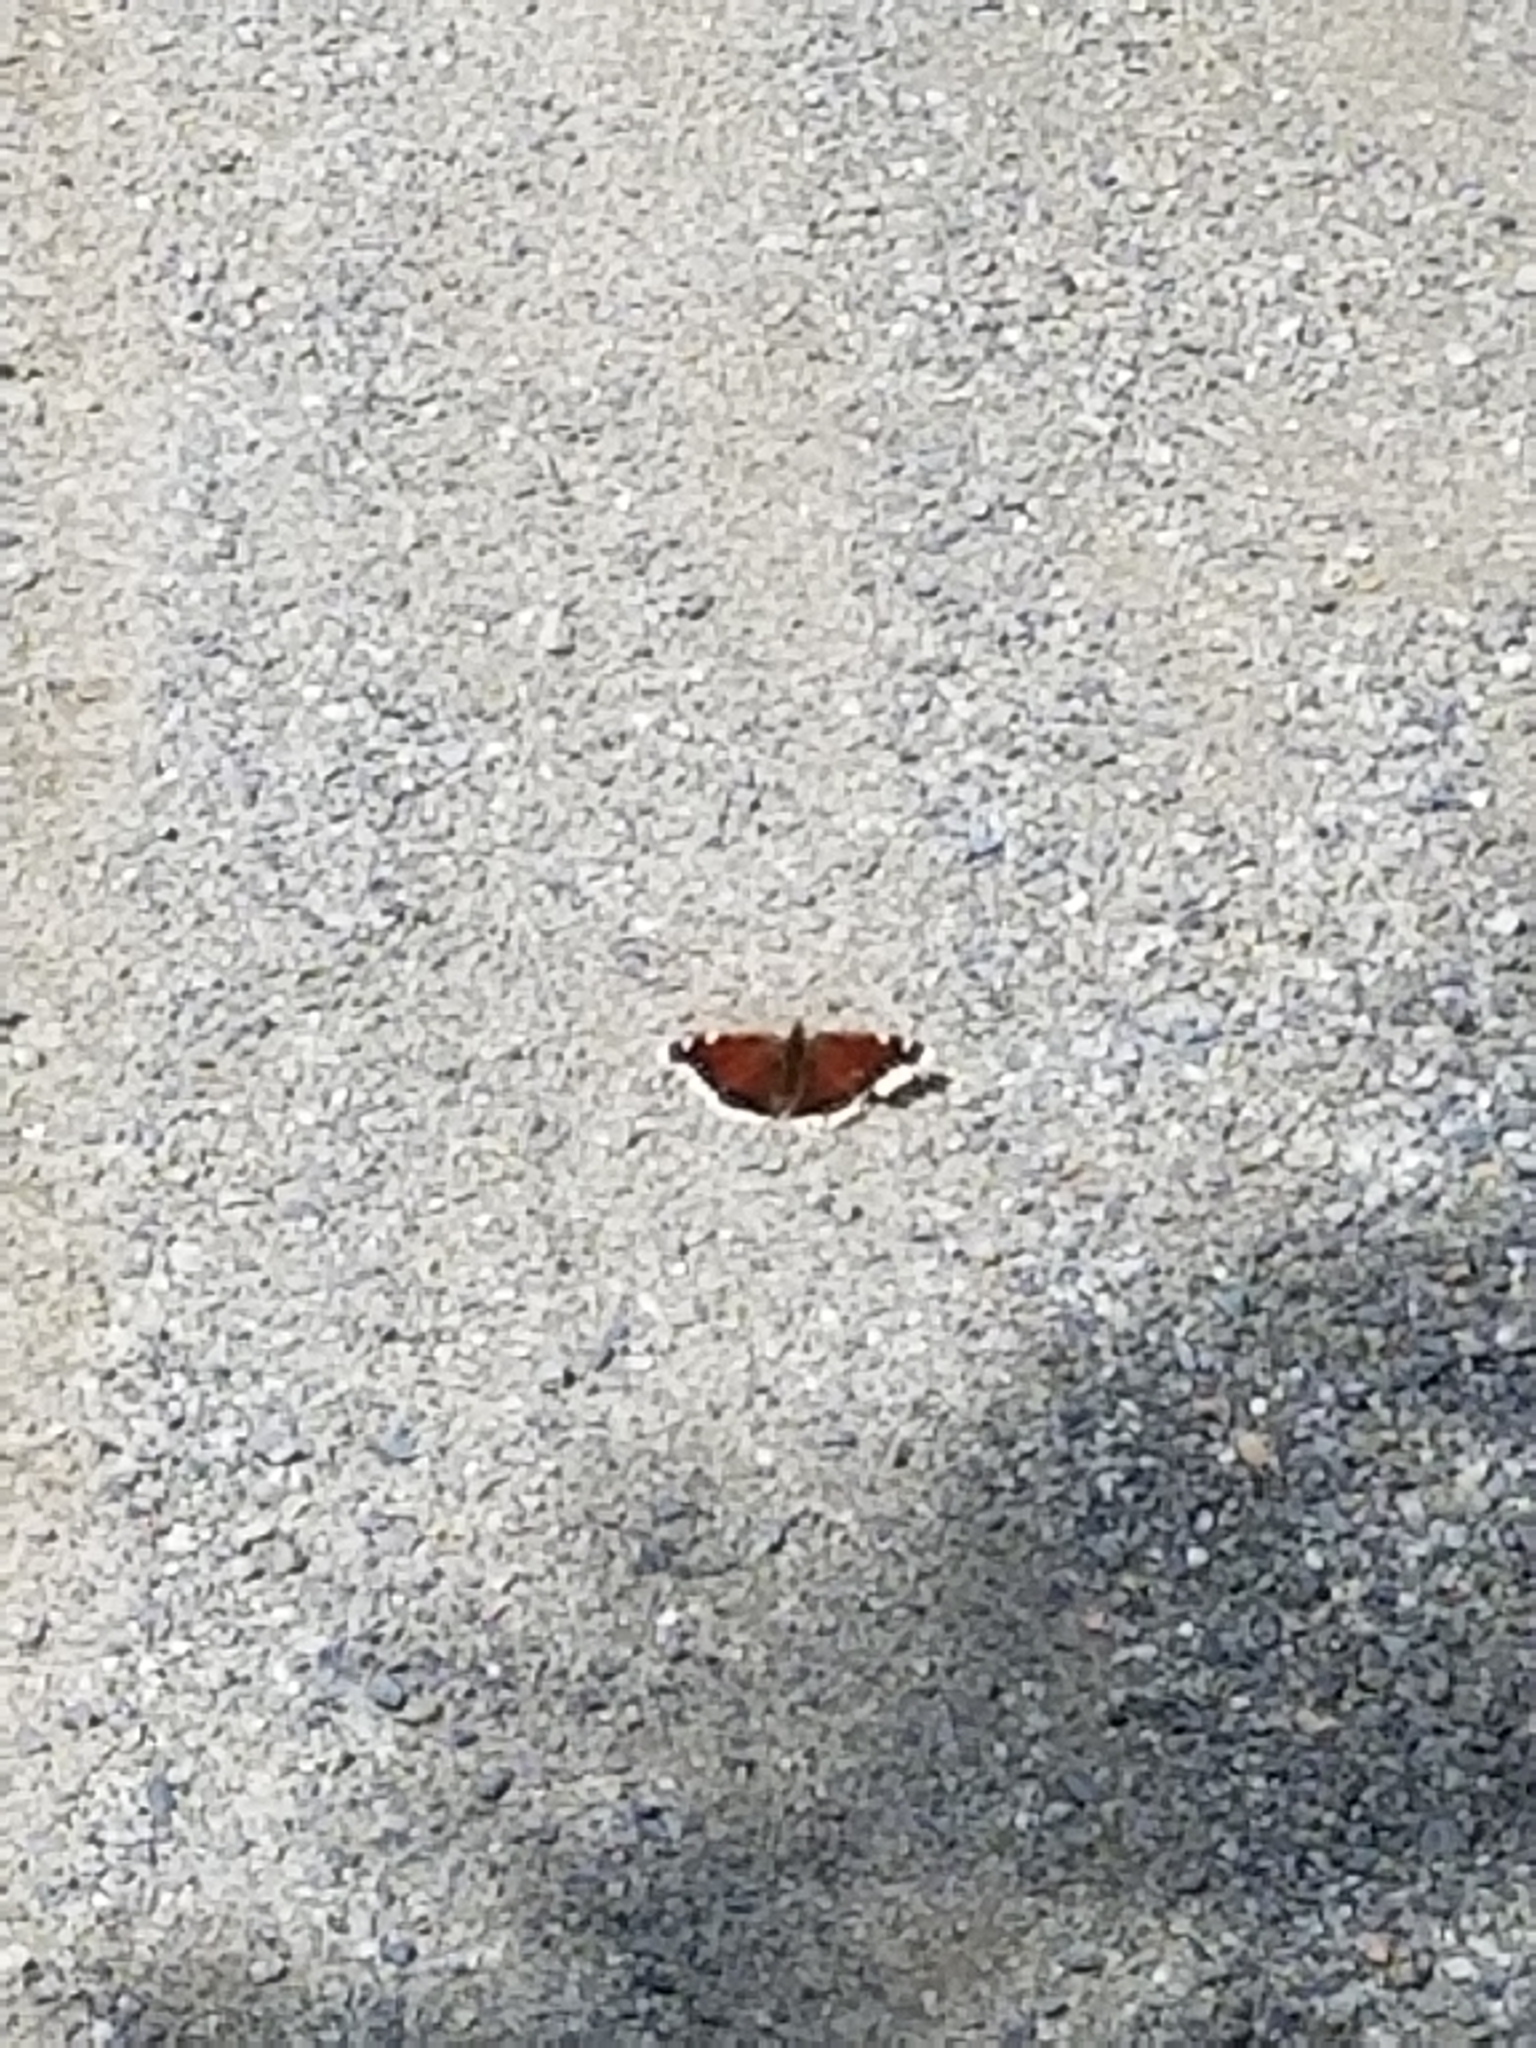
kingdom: Animalia
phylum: Arthropoda
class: Insecta
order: Lepidoptera
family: Nymphalidae
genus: Nymphalis
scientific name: Nymphalis antiopa
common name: Camberwell beauty
